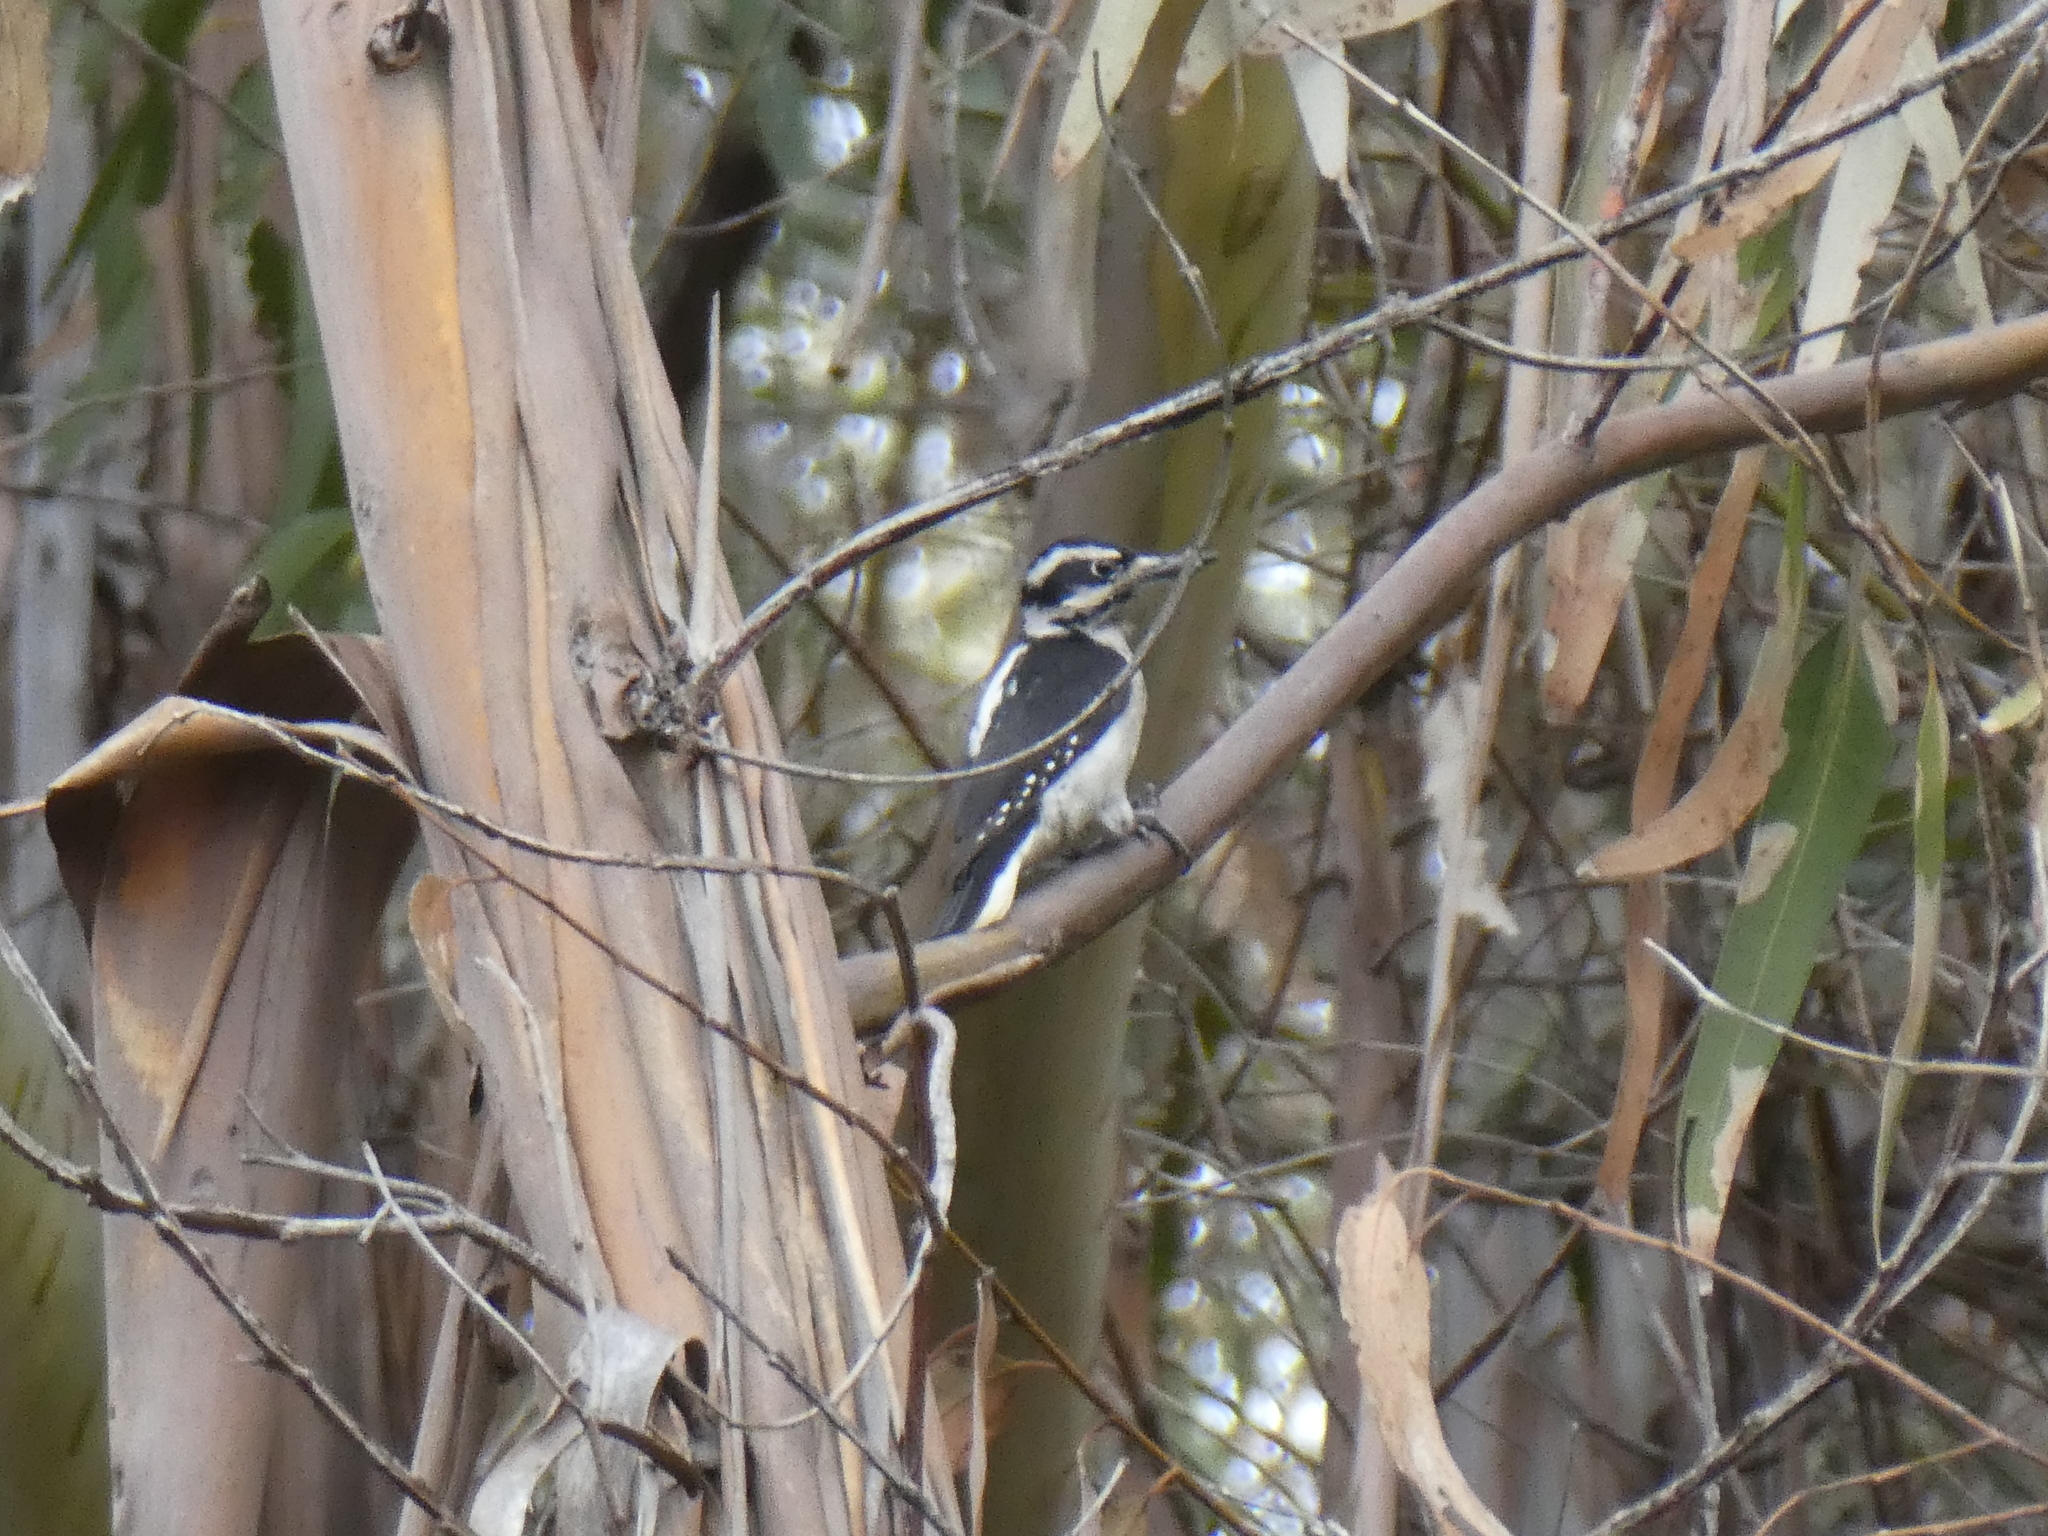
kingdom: Animalia
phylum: Chordata
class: Aves
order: Piciformes
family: Picidae
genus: Leuconotopicus
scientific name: Leuconotopicus villosus
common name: Hairy woodpecker
